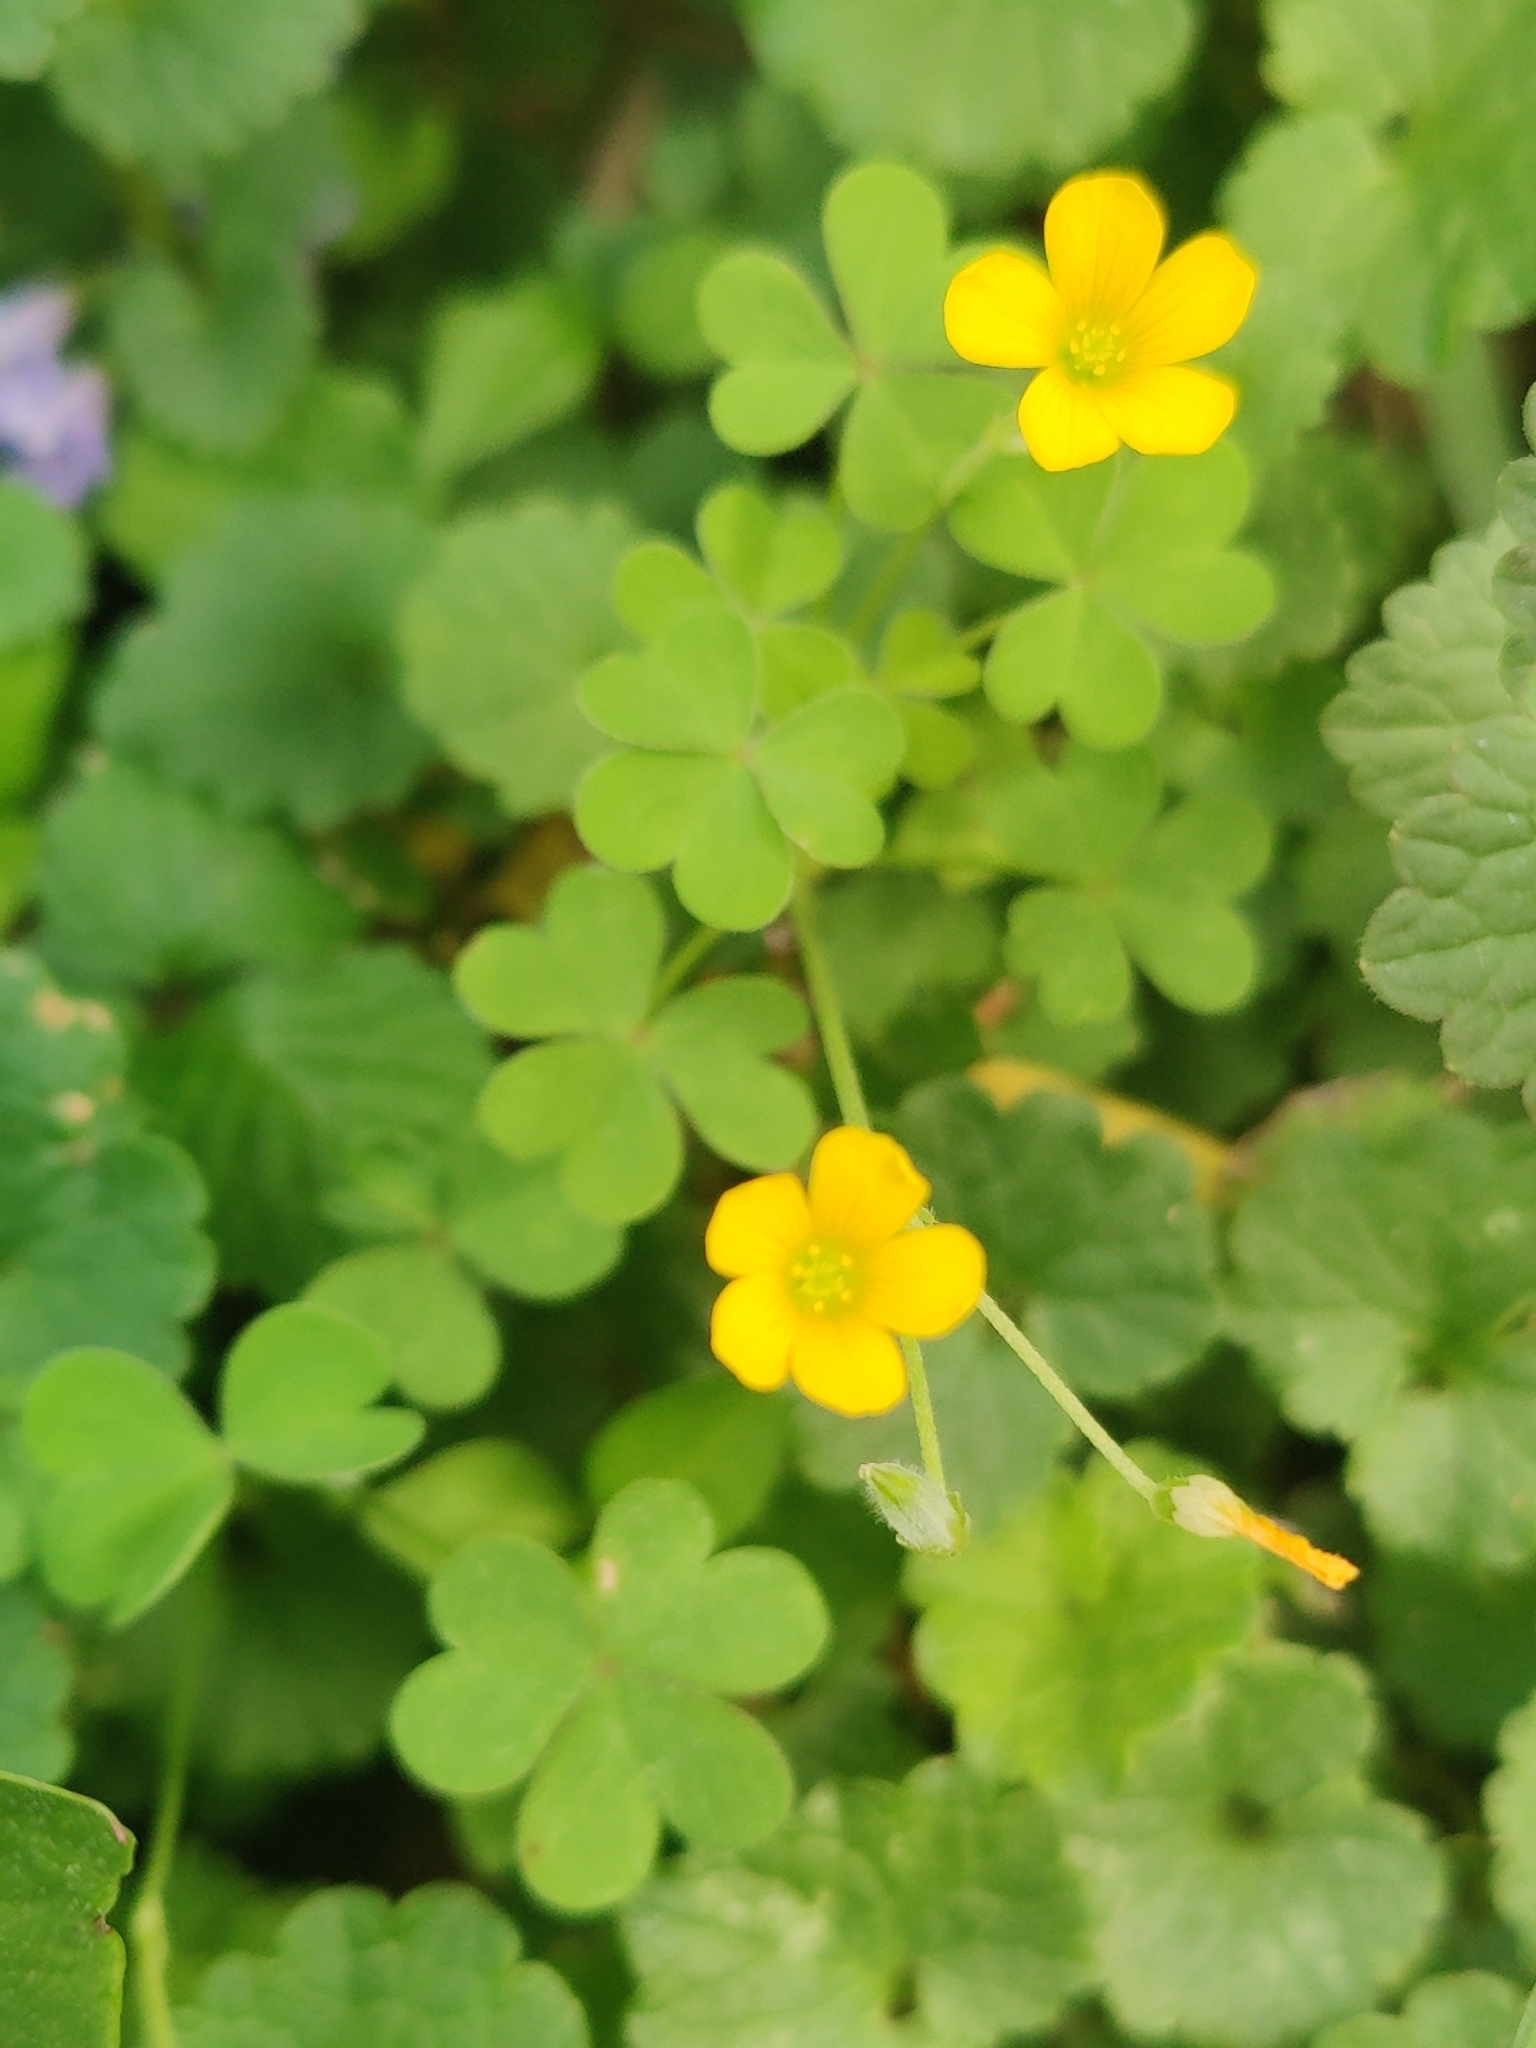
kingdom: Plantae
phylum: Tracheophyta
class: Magnoliopsida
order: Oxalidales
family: Oxalidaceae
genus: Oxalis
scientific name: Oxalis corniculata
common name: Procumbent yellow-sorrel
